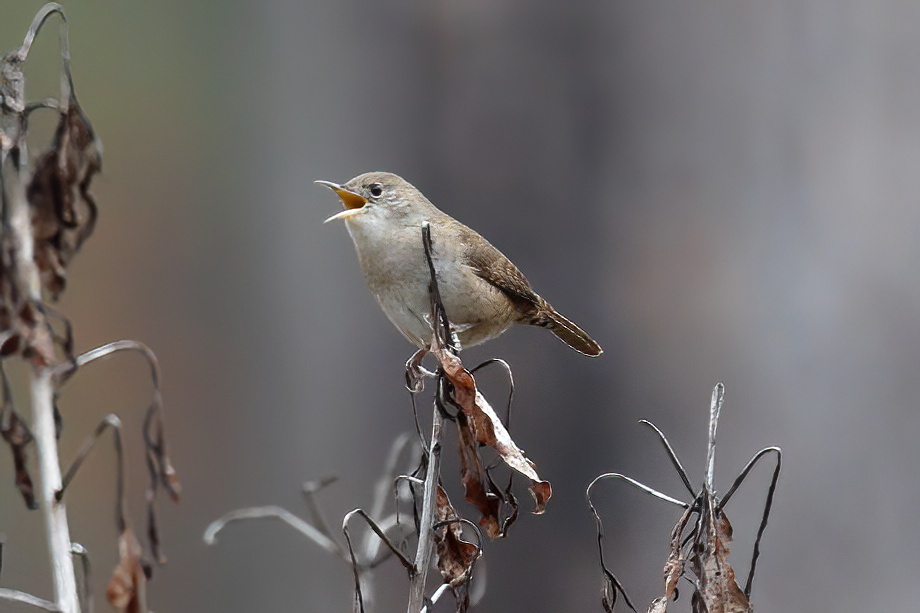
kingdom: Animalia
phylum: Chordata
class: Aves
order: Passeriformes
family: Troglodytidae
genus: Troglodytes
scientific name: Troglodytes aedon
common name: House wren
